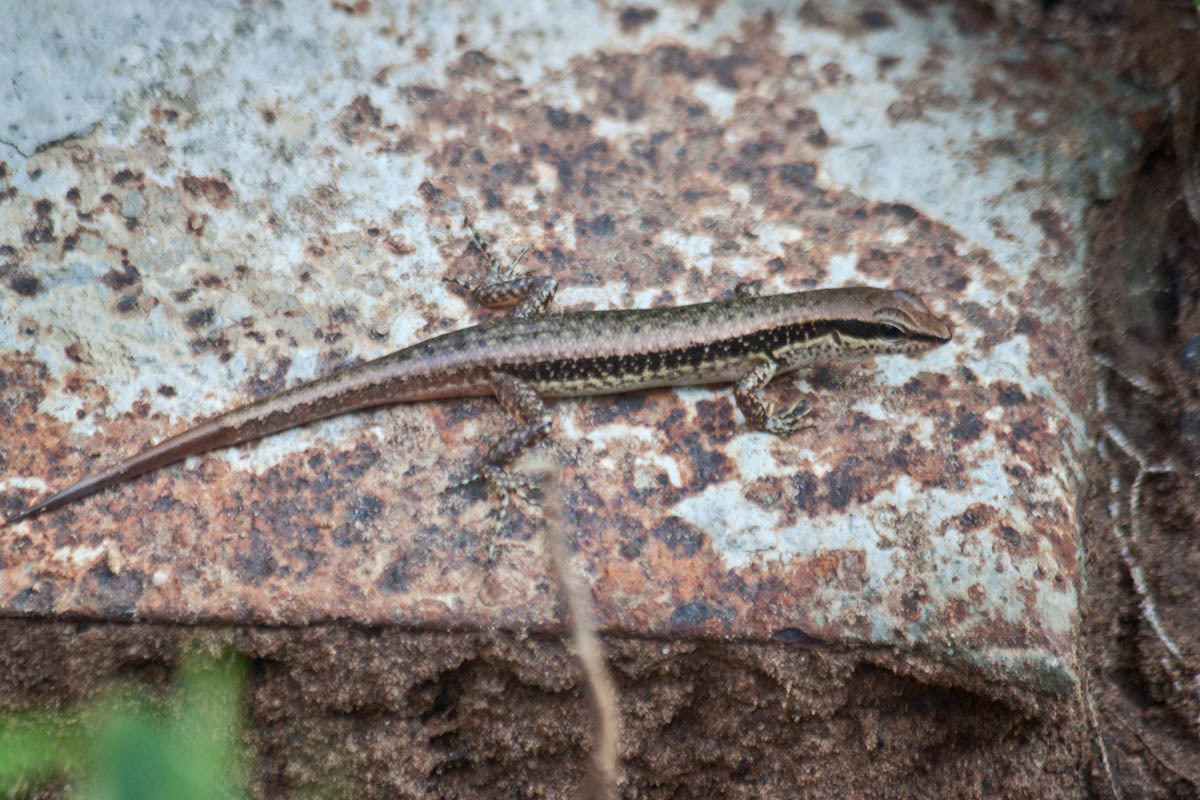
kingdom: Animalia
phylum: Chordata
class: Squamata
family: Scincidae
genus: Sphenomorphus
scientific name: Sphenomorphus maculatus
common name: Maculated forest skink
